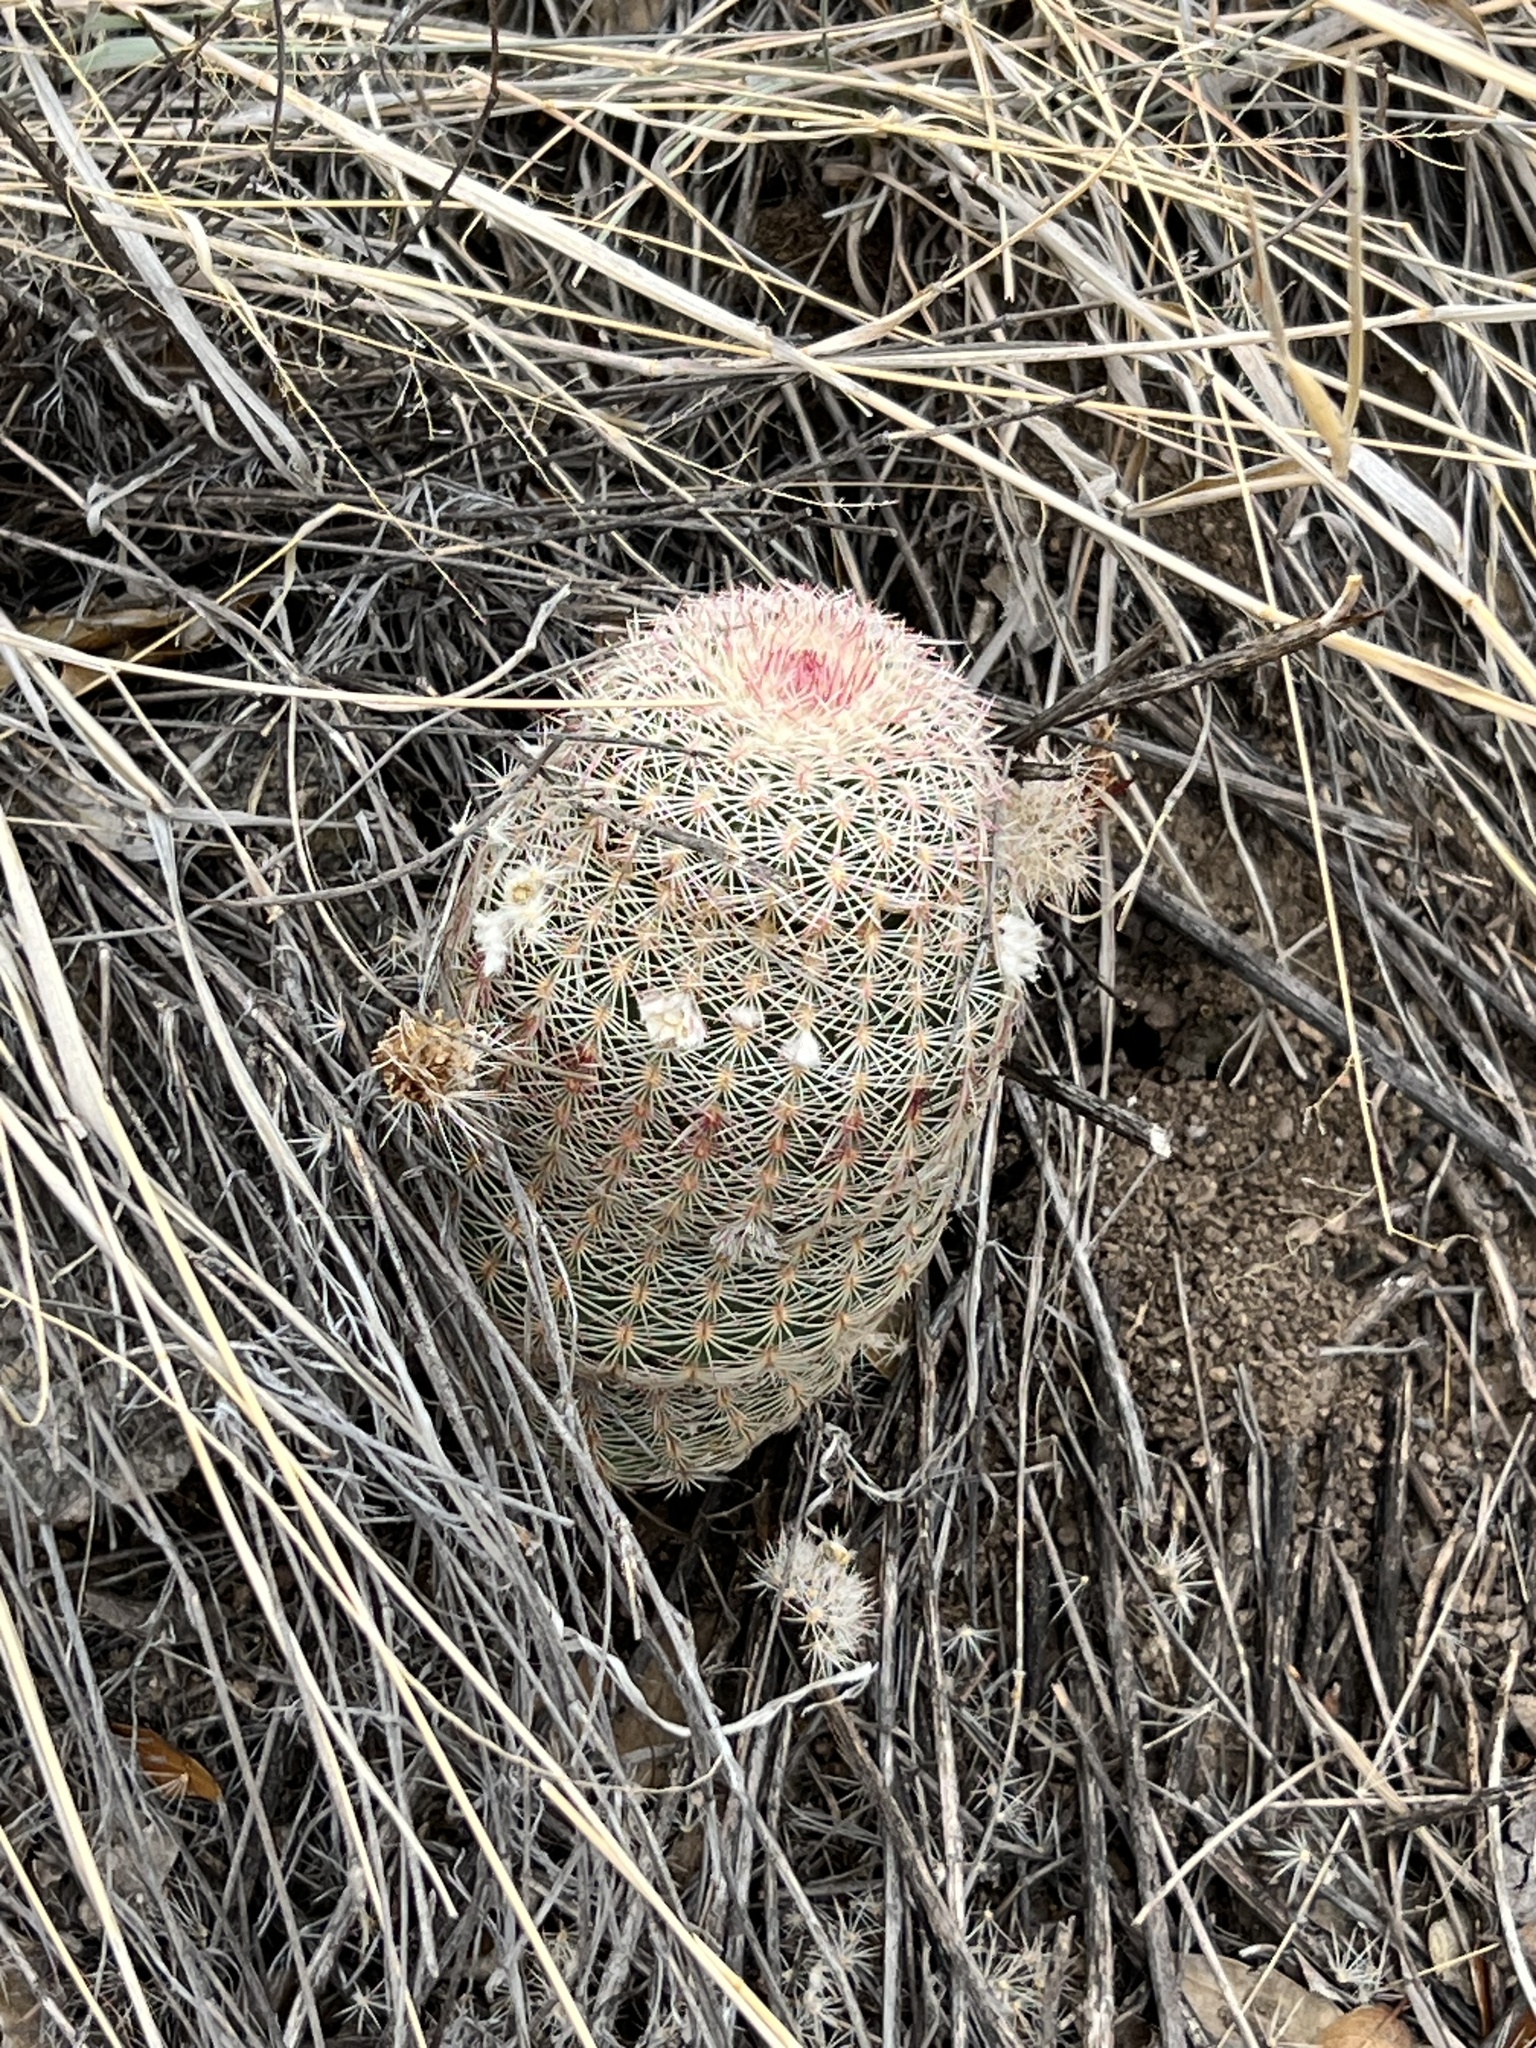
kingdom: Plantae
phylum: Tracheophyta
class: Magnoliopsida
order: Caryophyllales
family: Cactaceae
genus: Echinocereus
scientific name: Echinocereus rigidissimus
